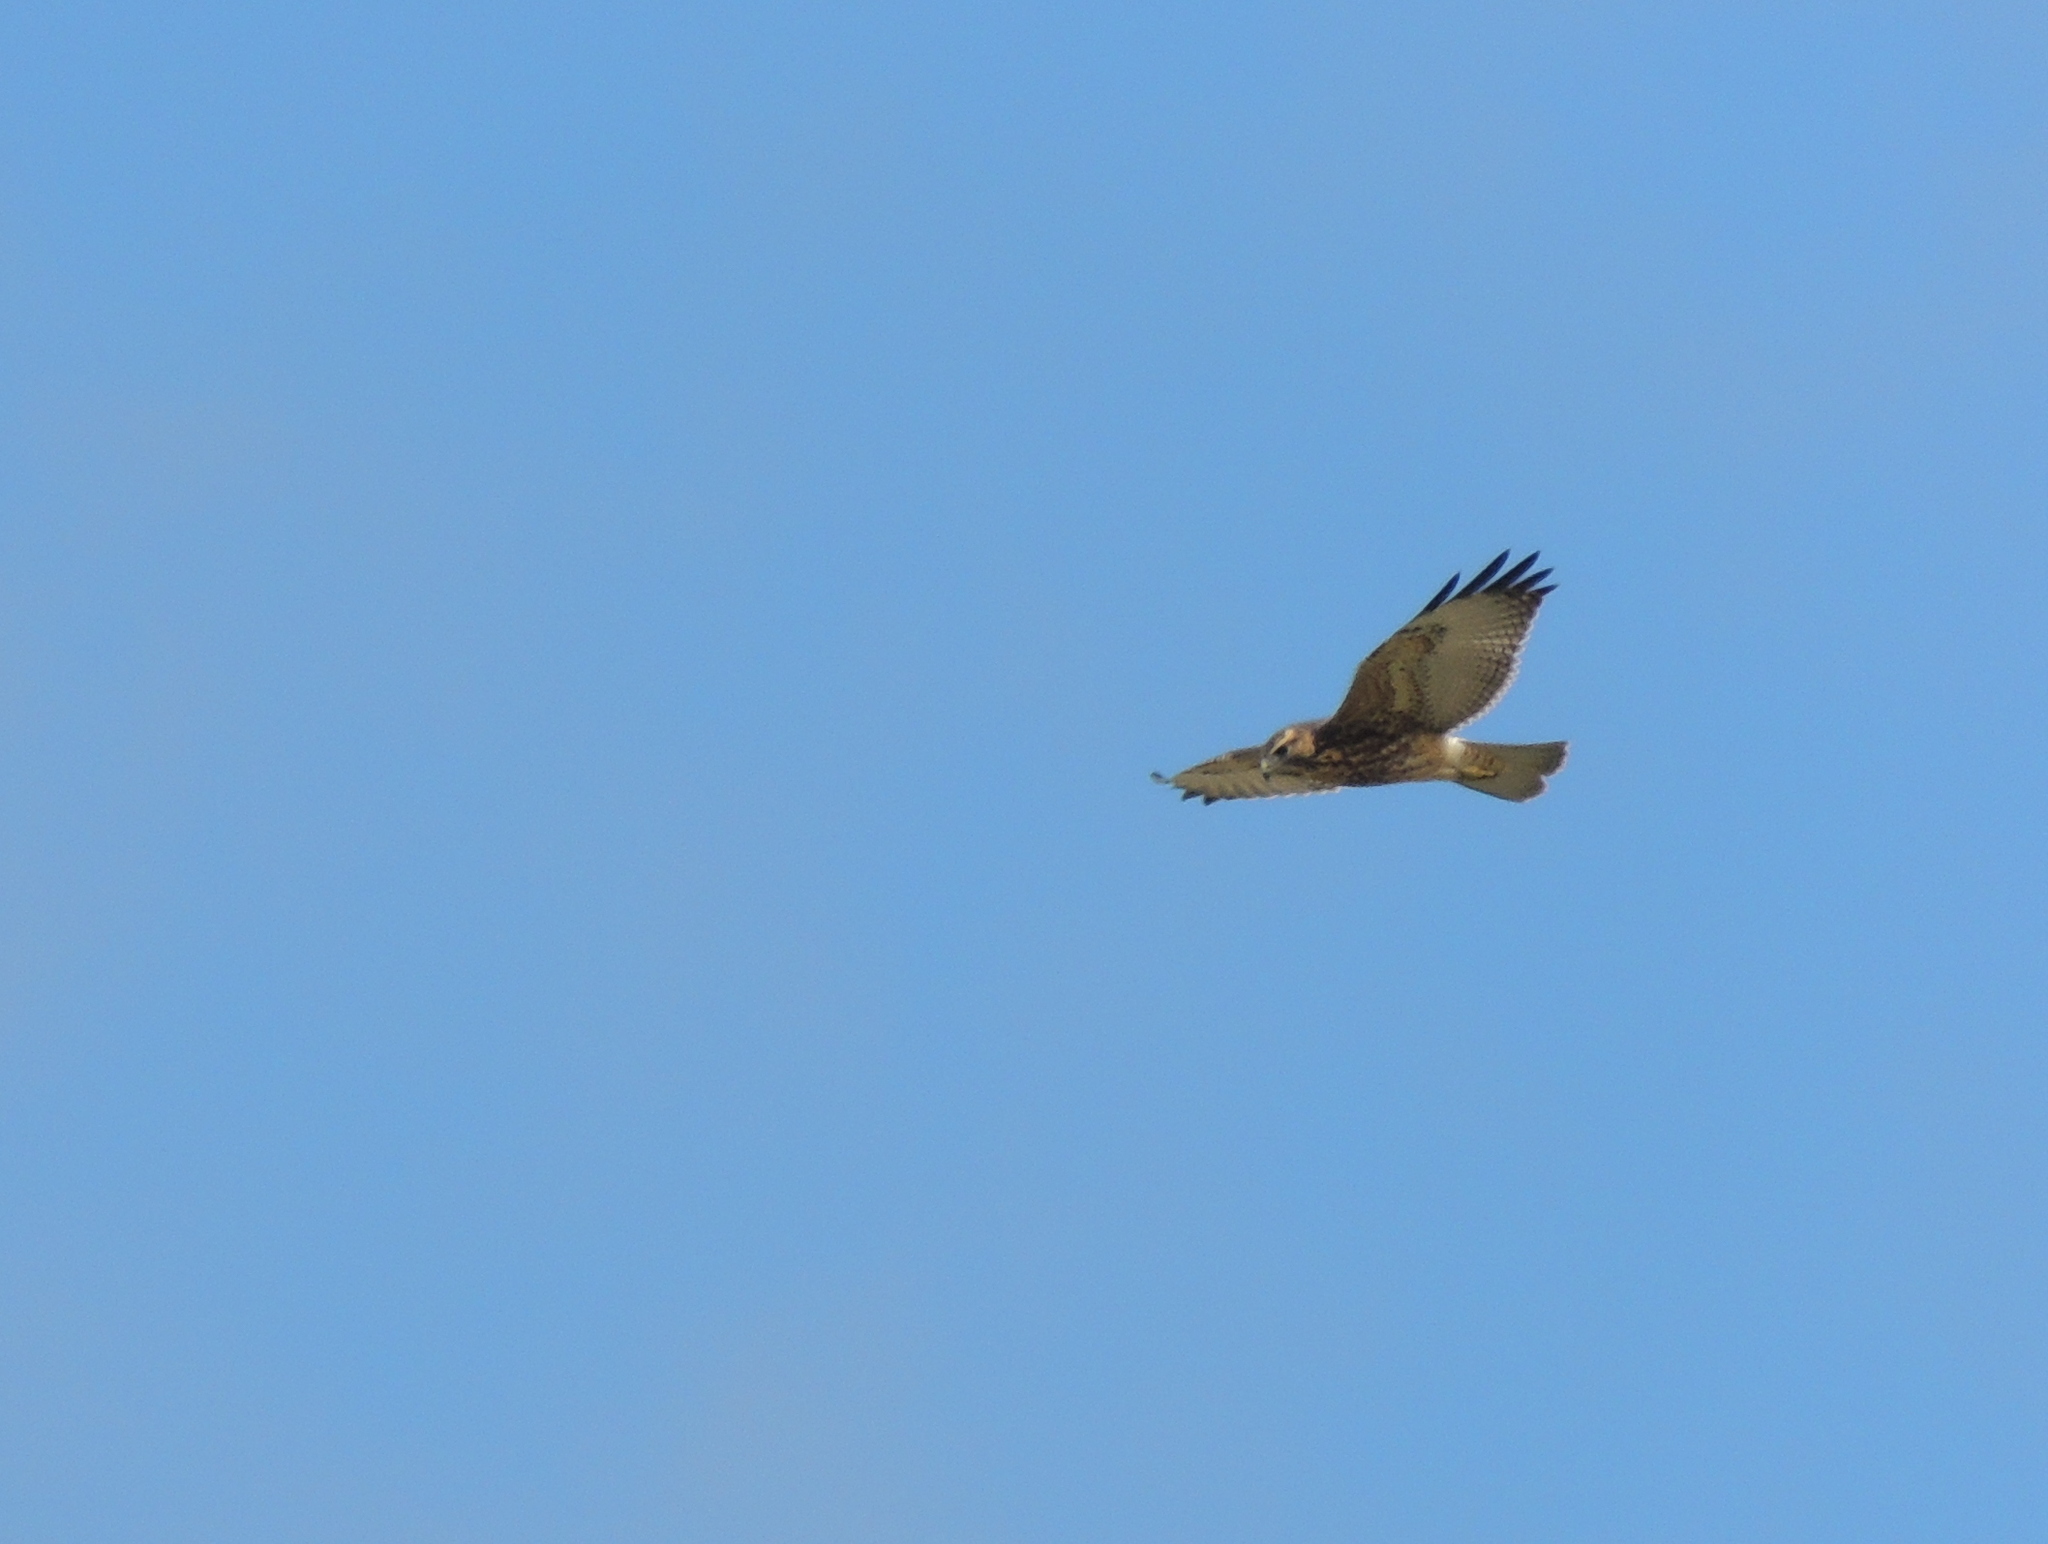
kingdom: Animalia
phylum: Chordata
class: Aves
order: Accipitriformes
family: Accipitridae
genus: Buteo
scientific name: Buteo polyosoma
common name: Variable hawk
